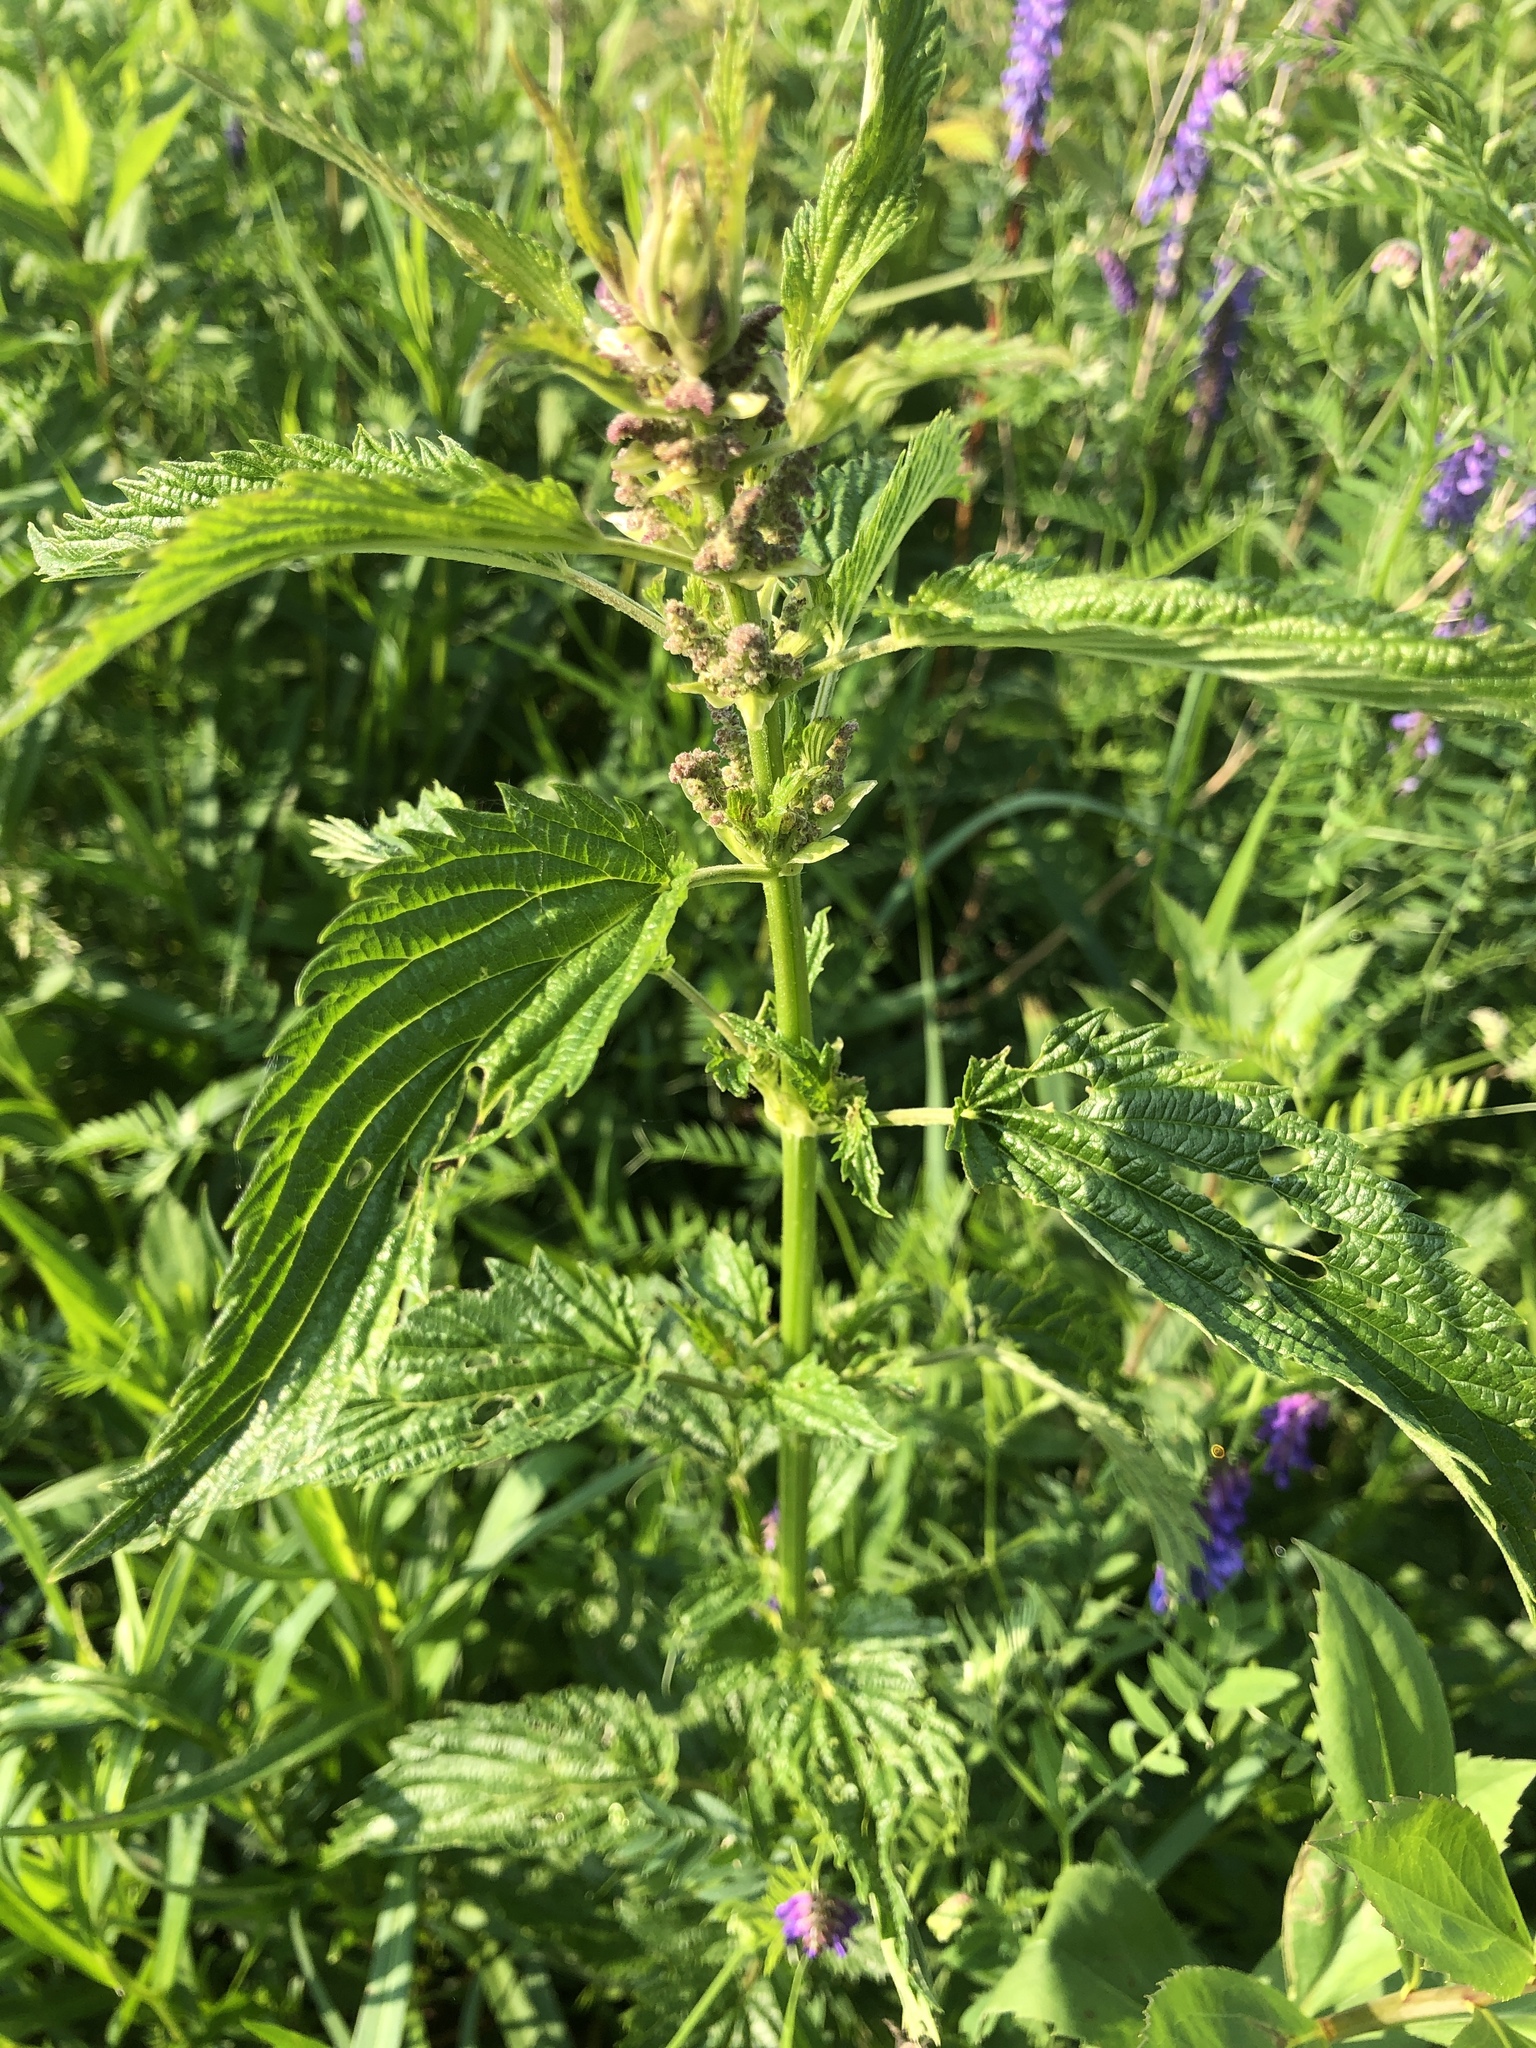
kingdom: Plantae
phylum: Tracheophyta
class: Magnoliopsida
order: Rosales
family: Urticaceae
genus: Urtica
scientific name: Urtica dioica
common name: Common nettle
